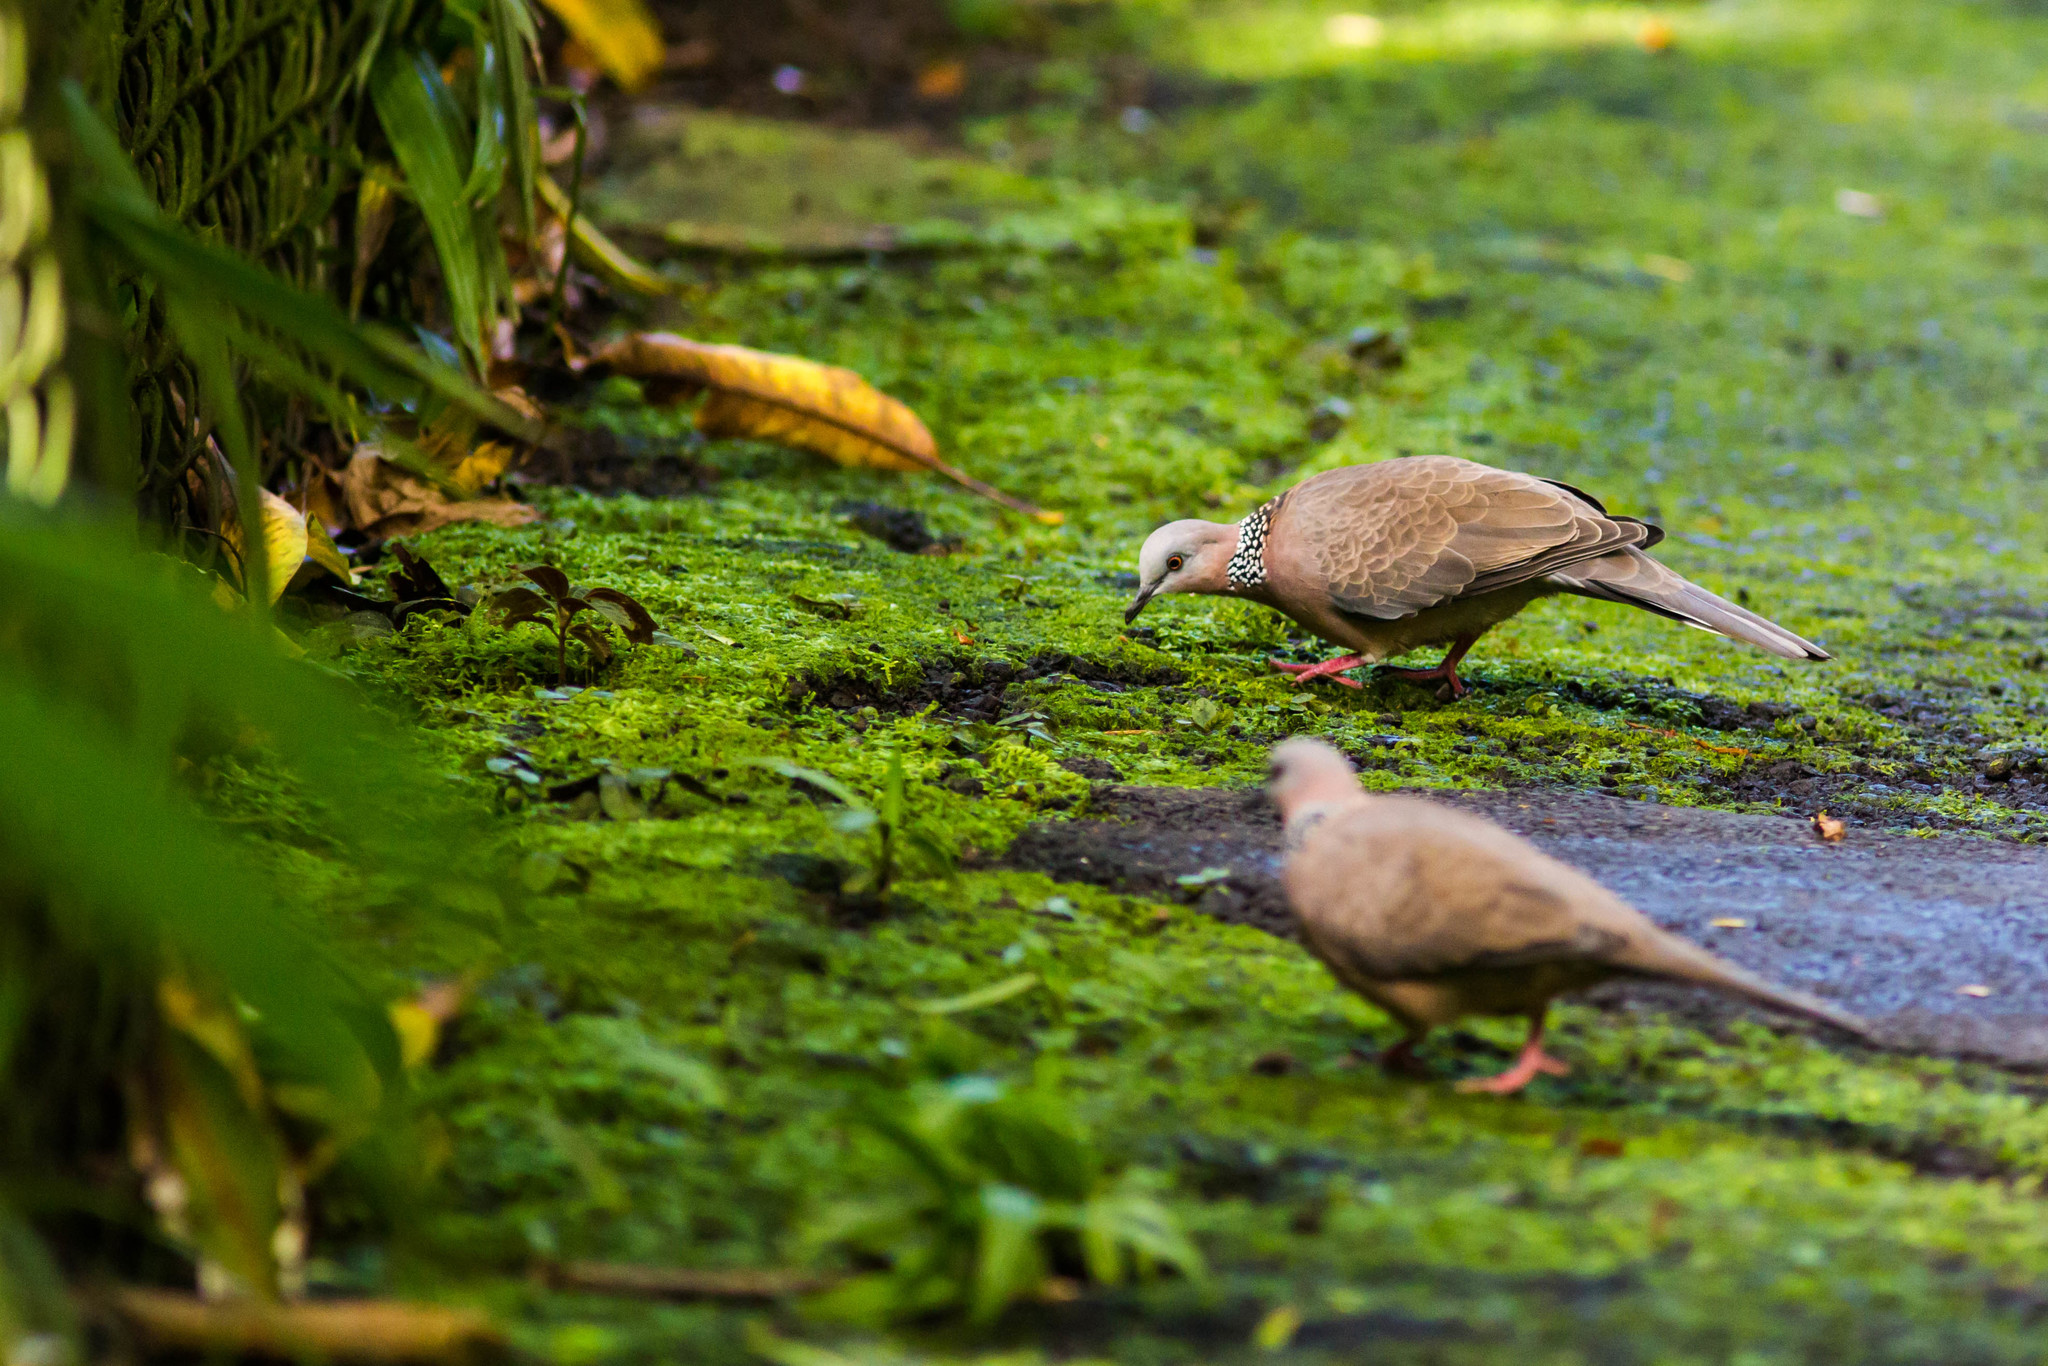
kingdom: Animalia
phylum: Chordata
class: Aves
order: Columbiformes
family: Columbidae
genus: Spilopelia
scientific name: Spilopelia chinensis
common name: Spotted dove
